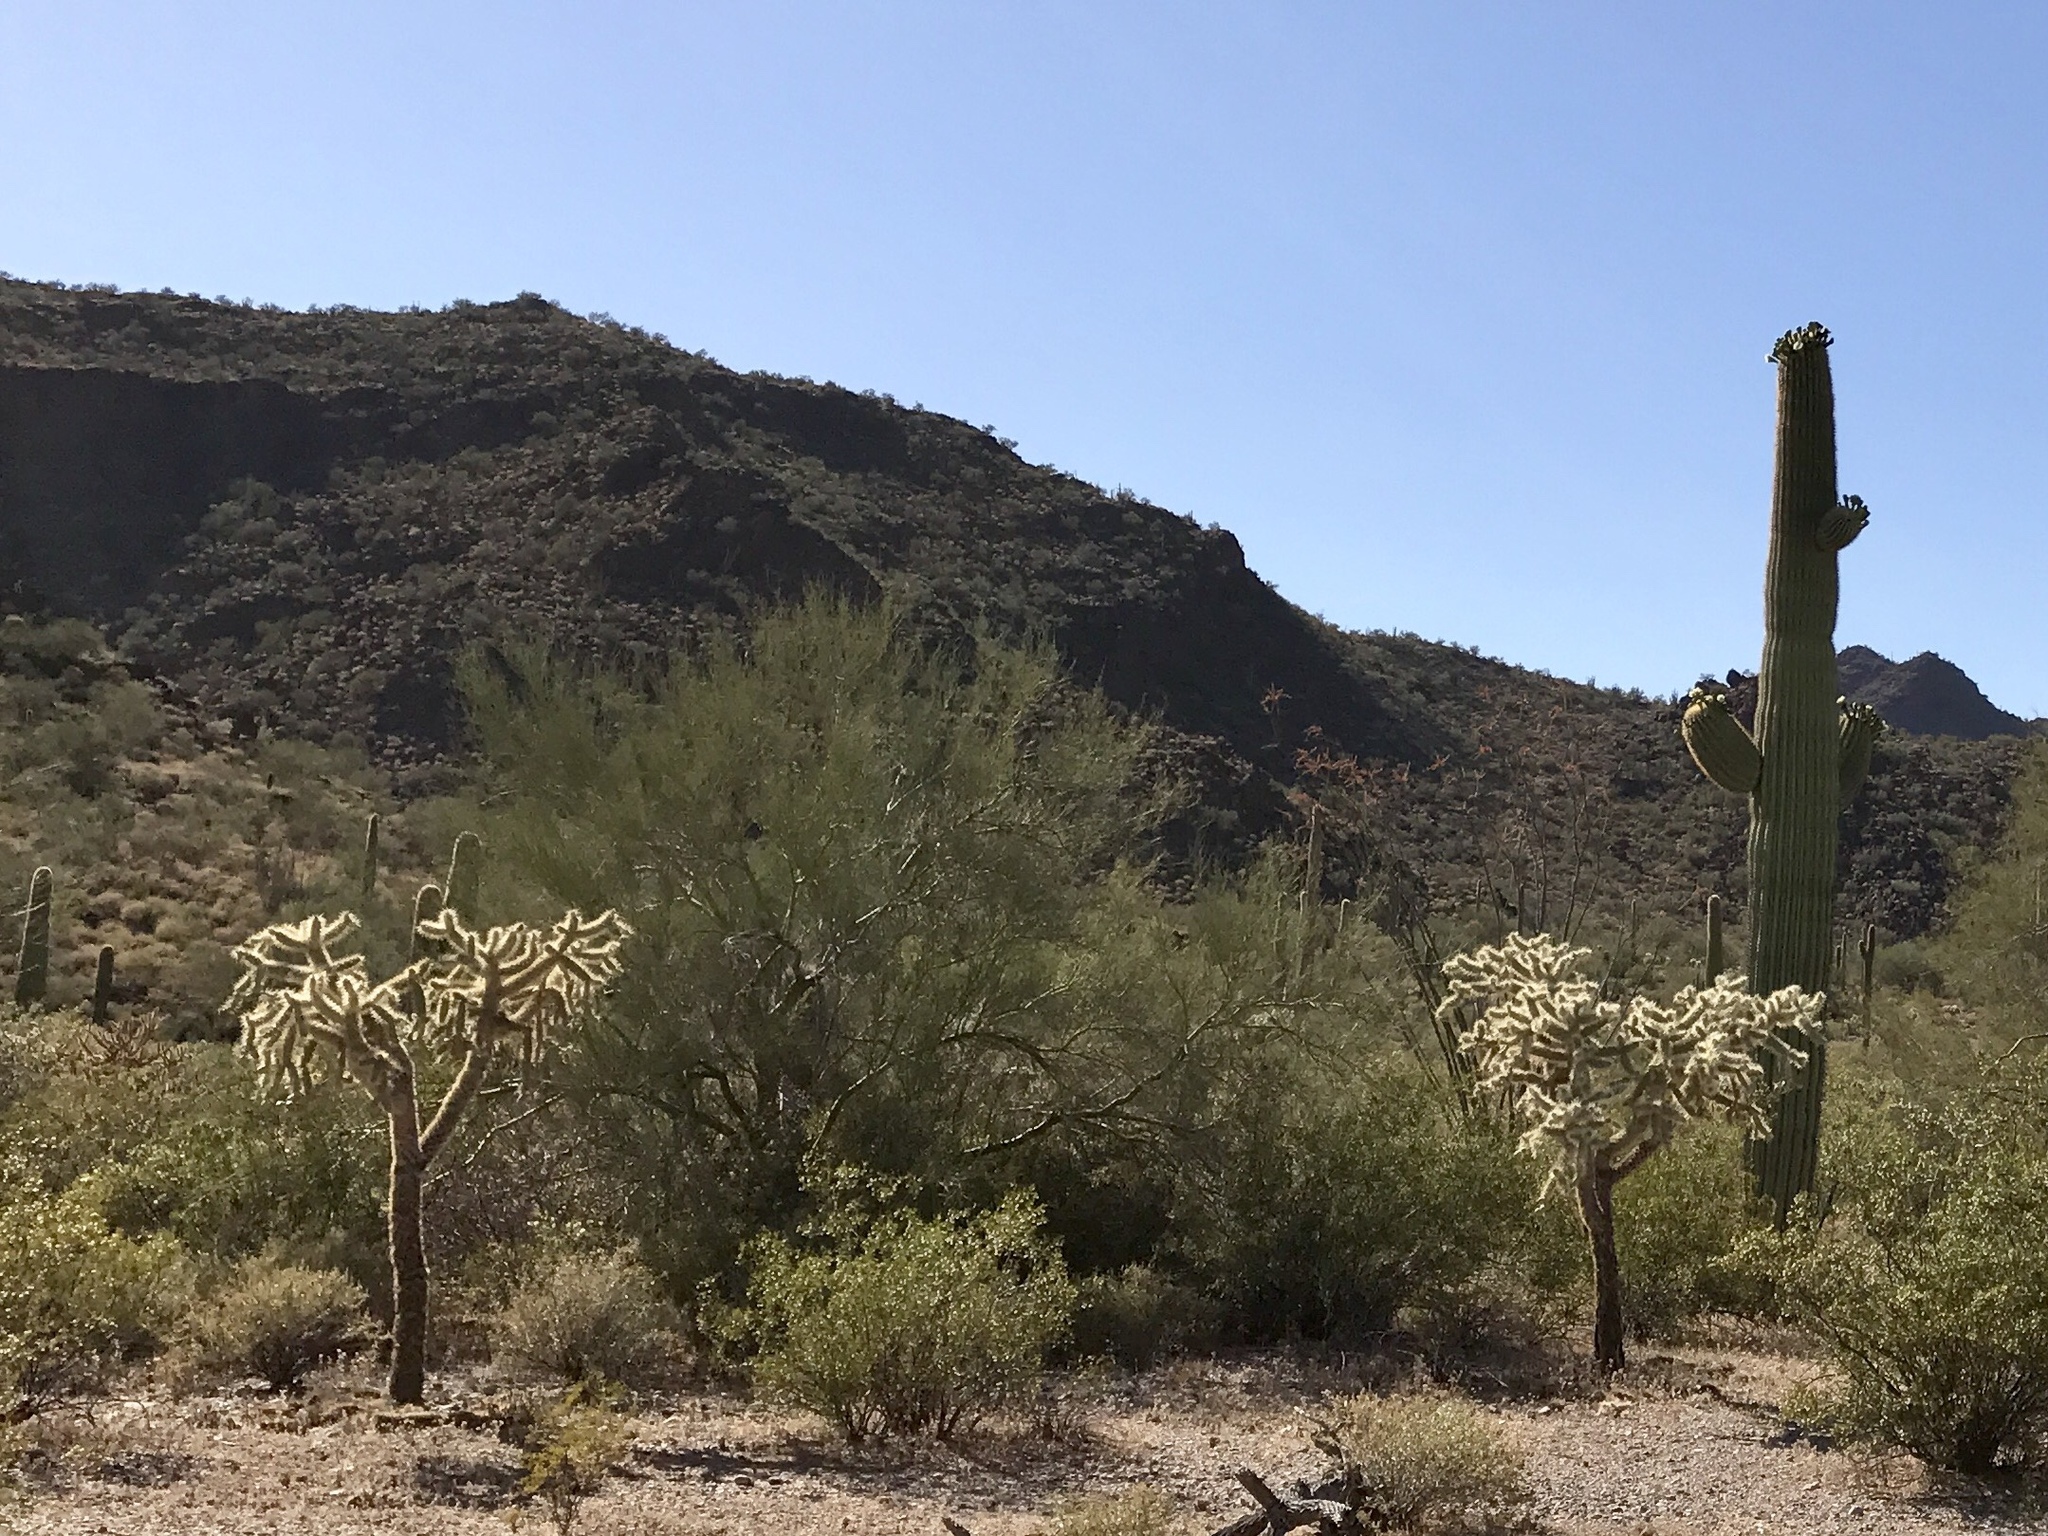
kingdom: Plantae
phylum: Tracheophyta
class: Magnoliopsida
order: Caryophyllales
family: Cactaceae
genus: Cylindropuntia
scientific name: Cylindropuntia fulgida
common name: Jumping cholla
